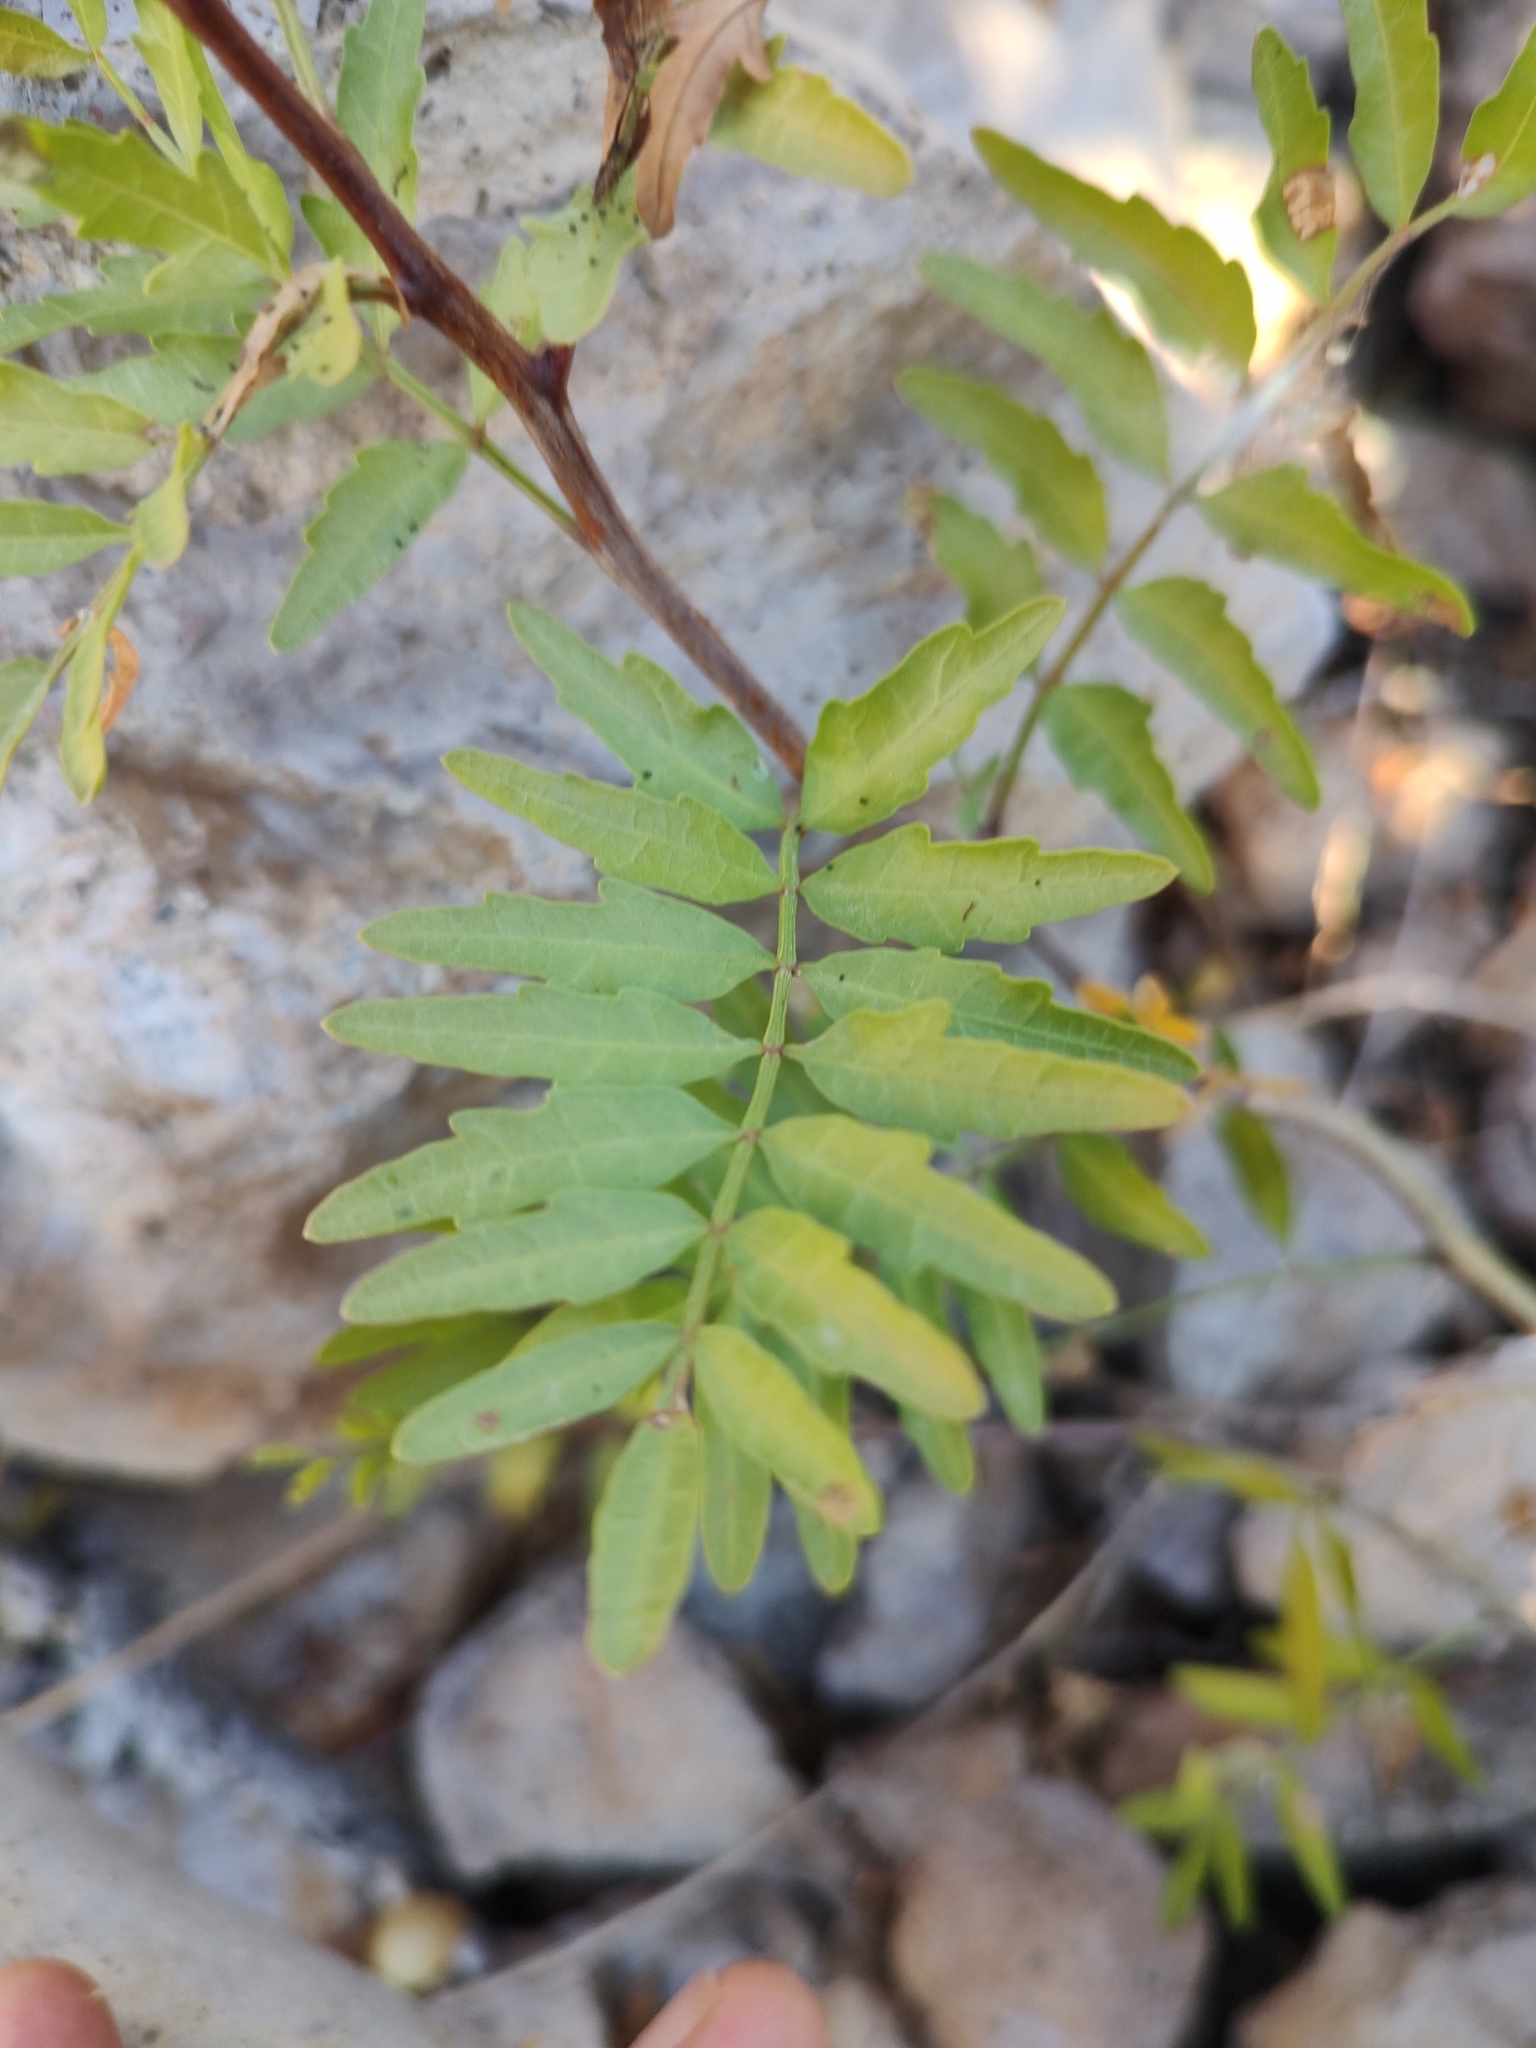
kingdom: Plantae
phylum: Tracheophyta
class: Magnoliopsida
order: Sapindales
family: Burseraceae
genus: Bursera
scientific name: Bursera microphylla
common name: Elephant tree
